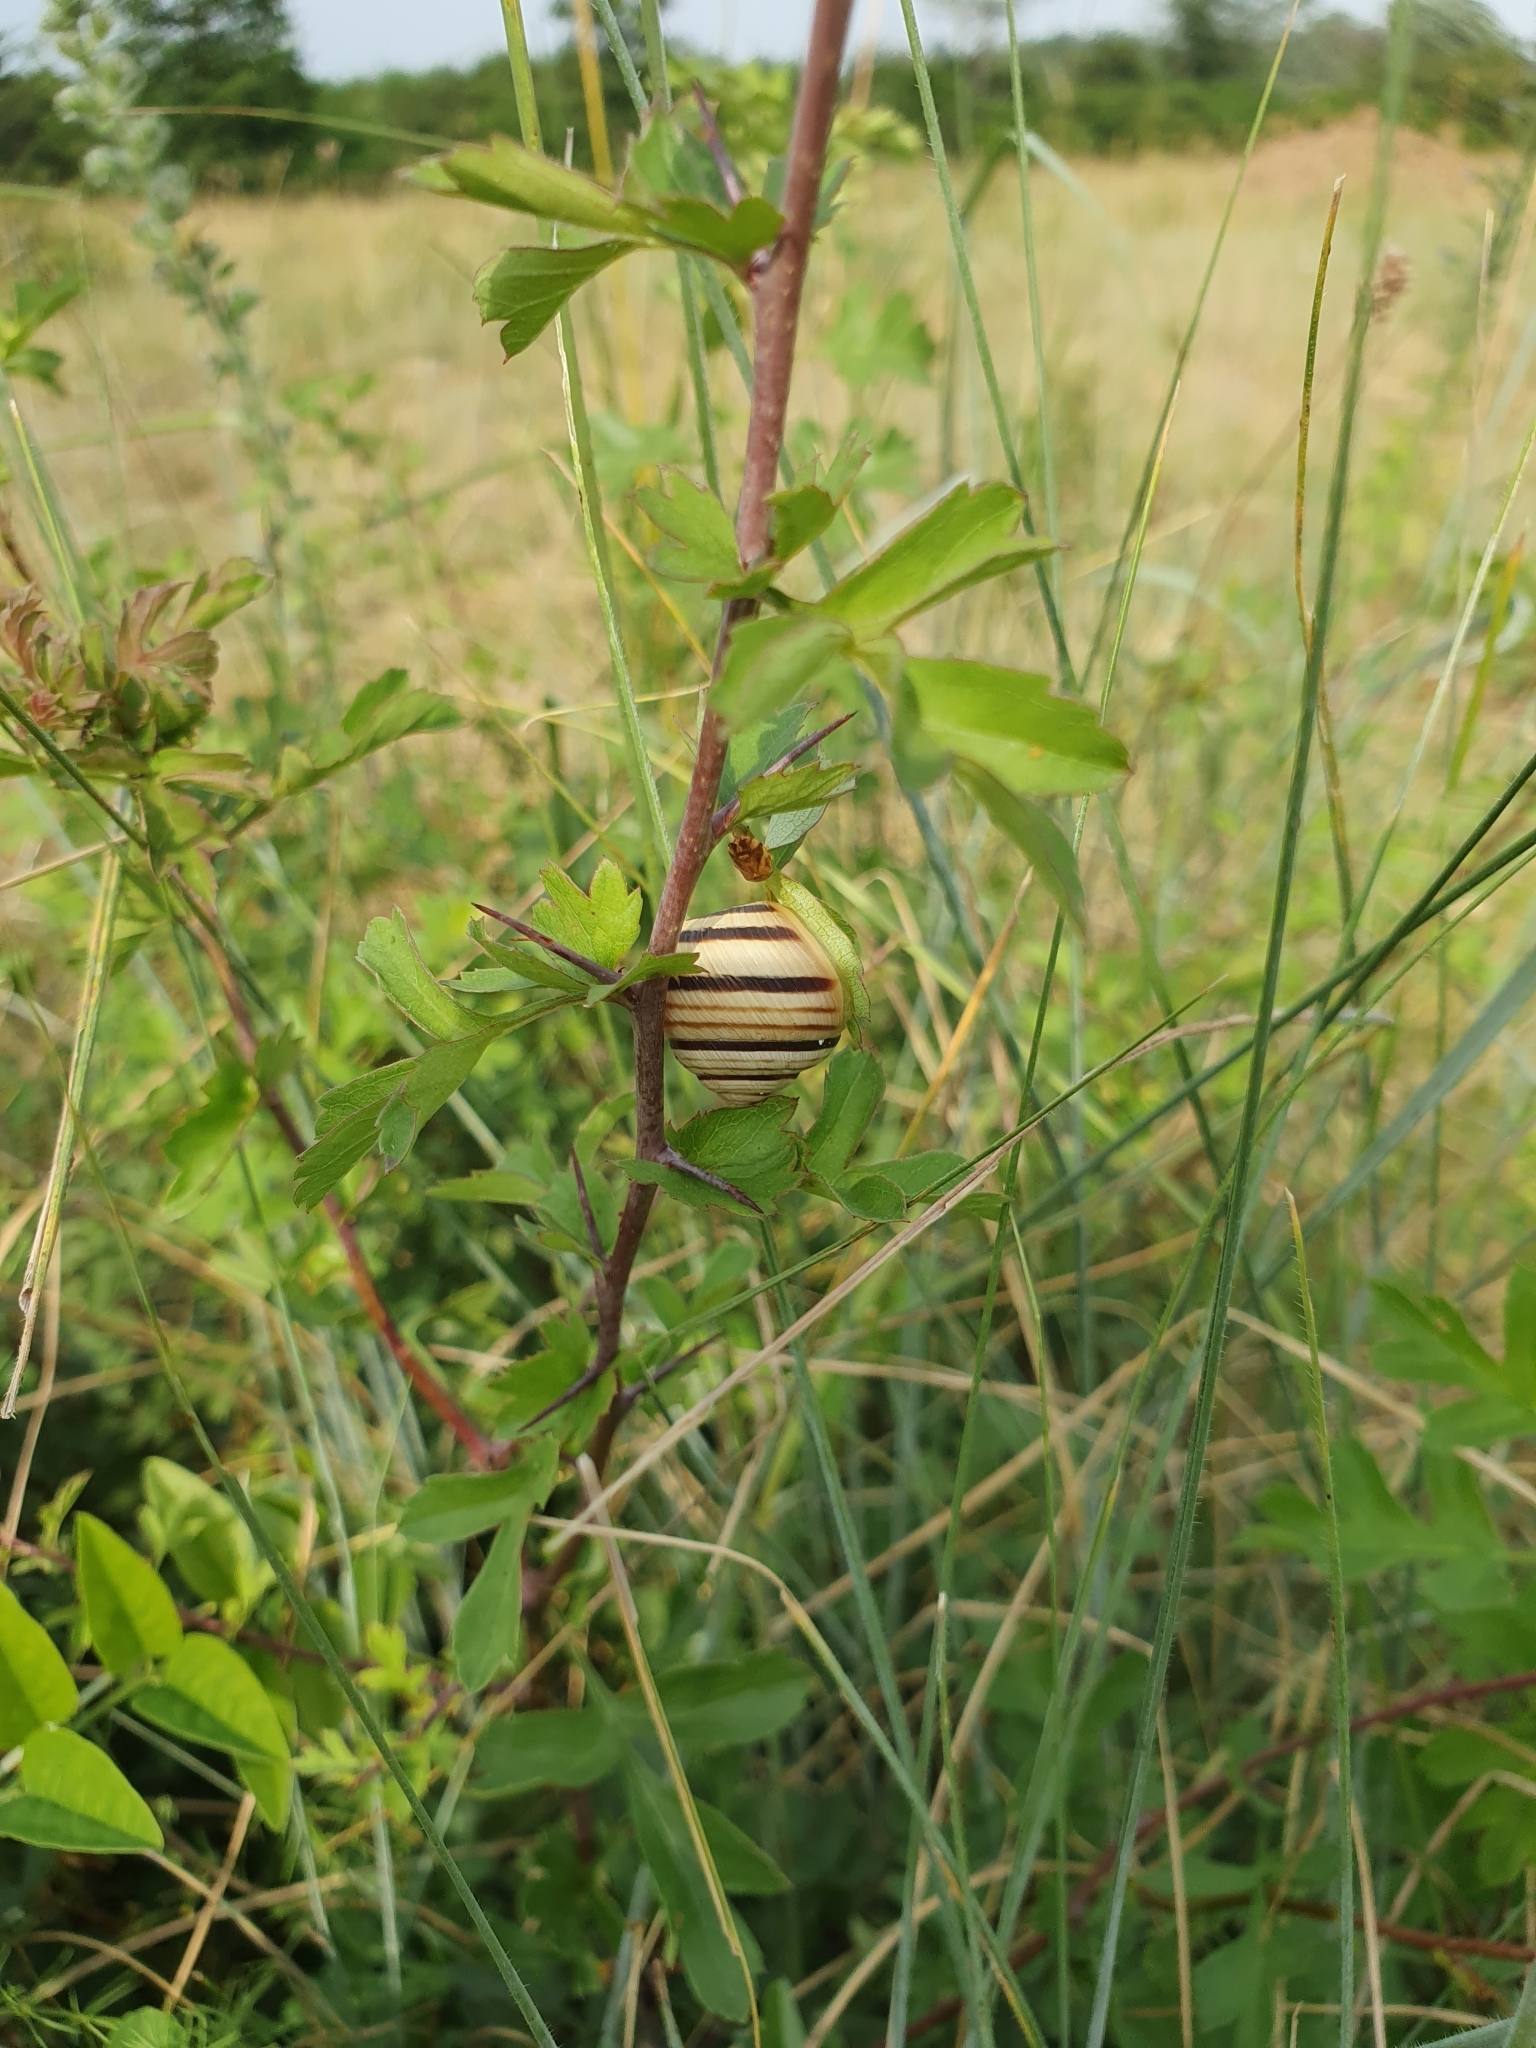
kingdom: Animalia
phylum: Mollusca
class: Gastropoda
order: Stylommatophora
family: Helicidae
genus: Caucasotachea
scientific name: Caucasotachea vindobonensis
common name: European helicid land snail
